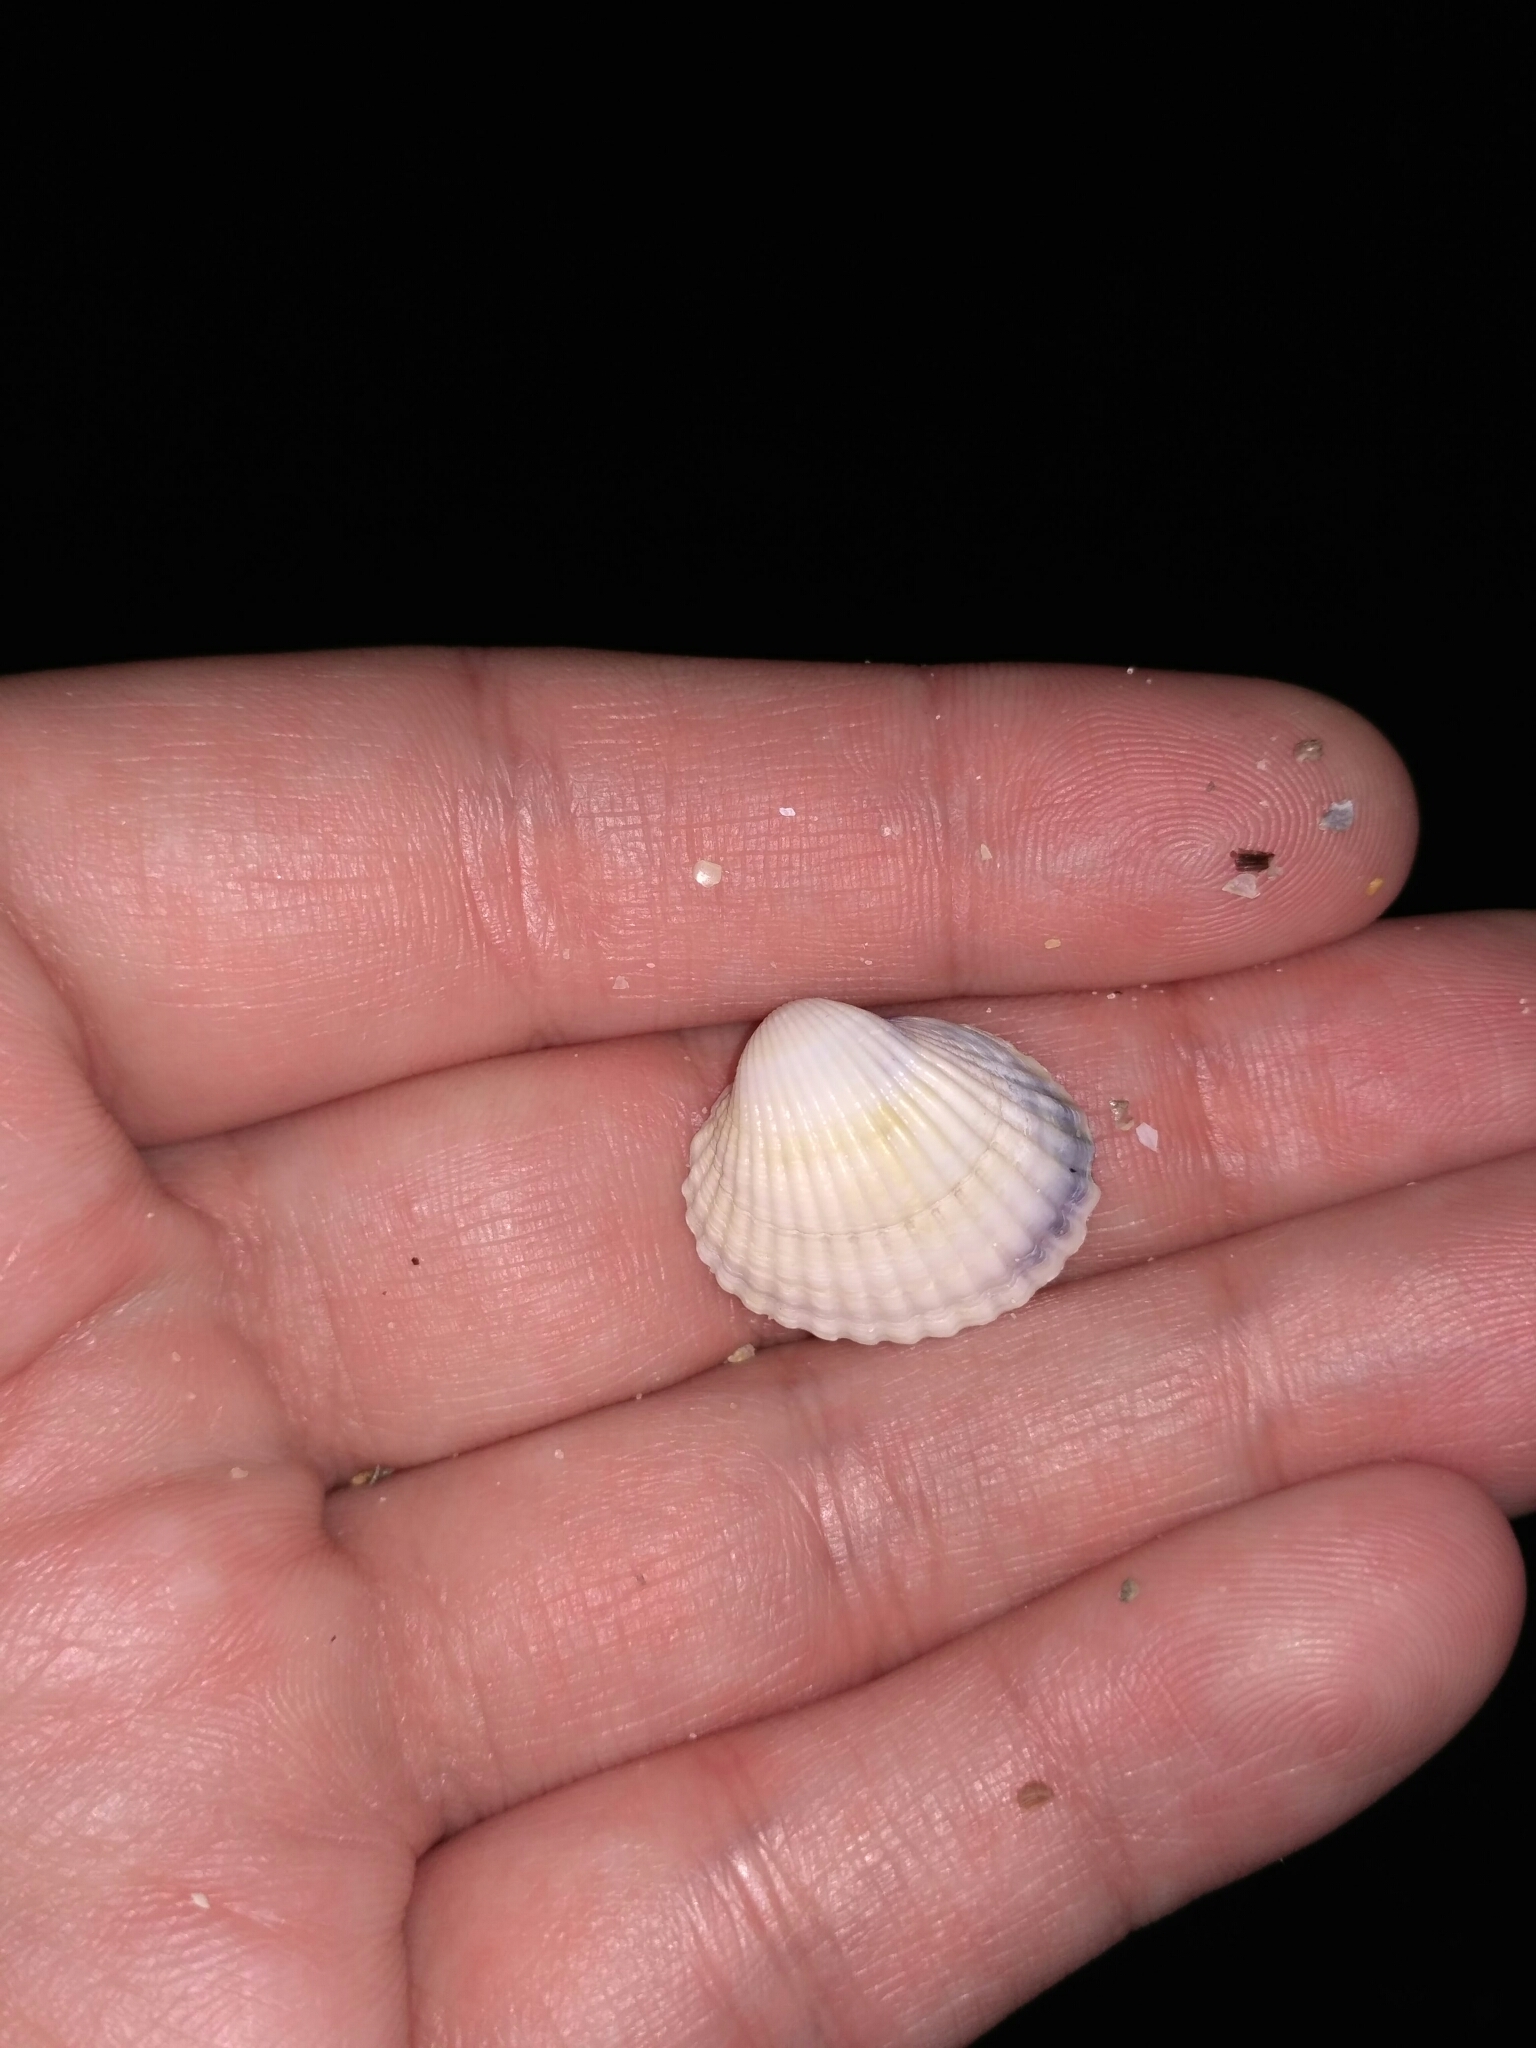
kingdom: Animalia
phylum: Mollusca
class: Bivalvia
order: Cardiida
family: Cardiidae
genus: Cerastoderma
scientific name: Cerastoderma glaucum
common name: Lagoon cockle
